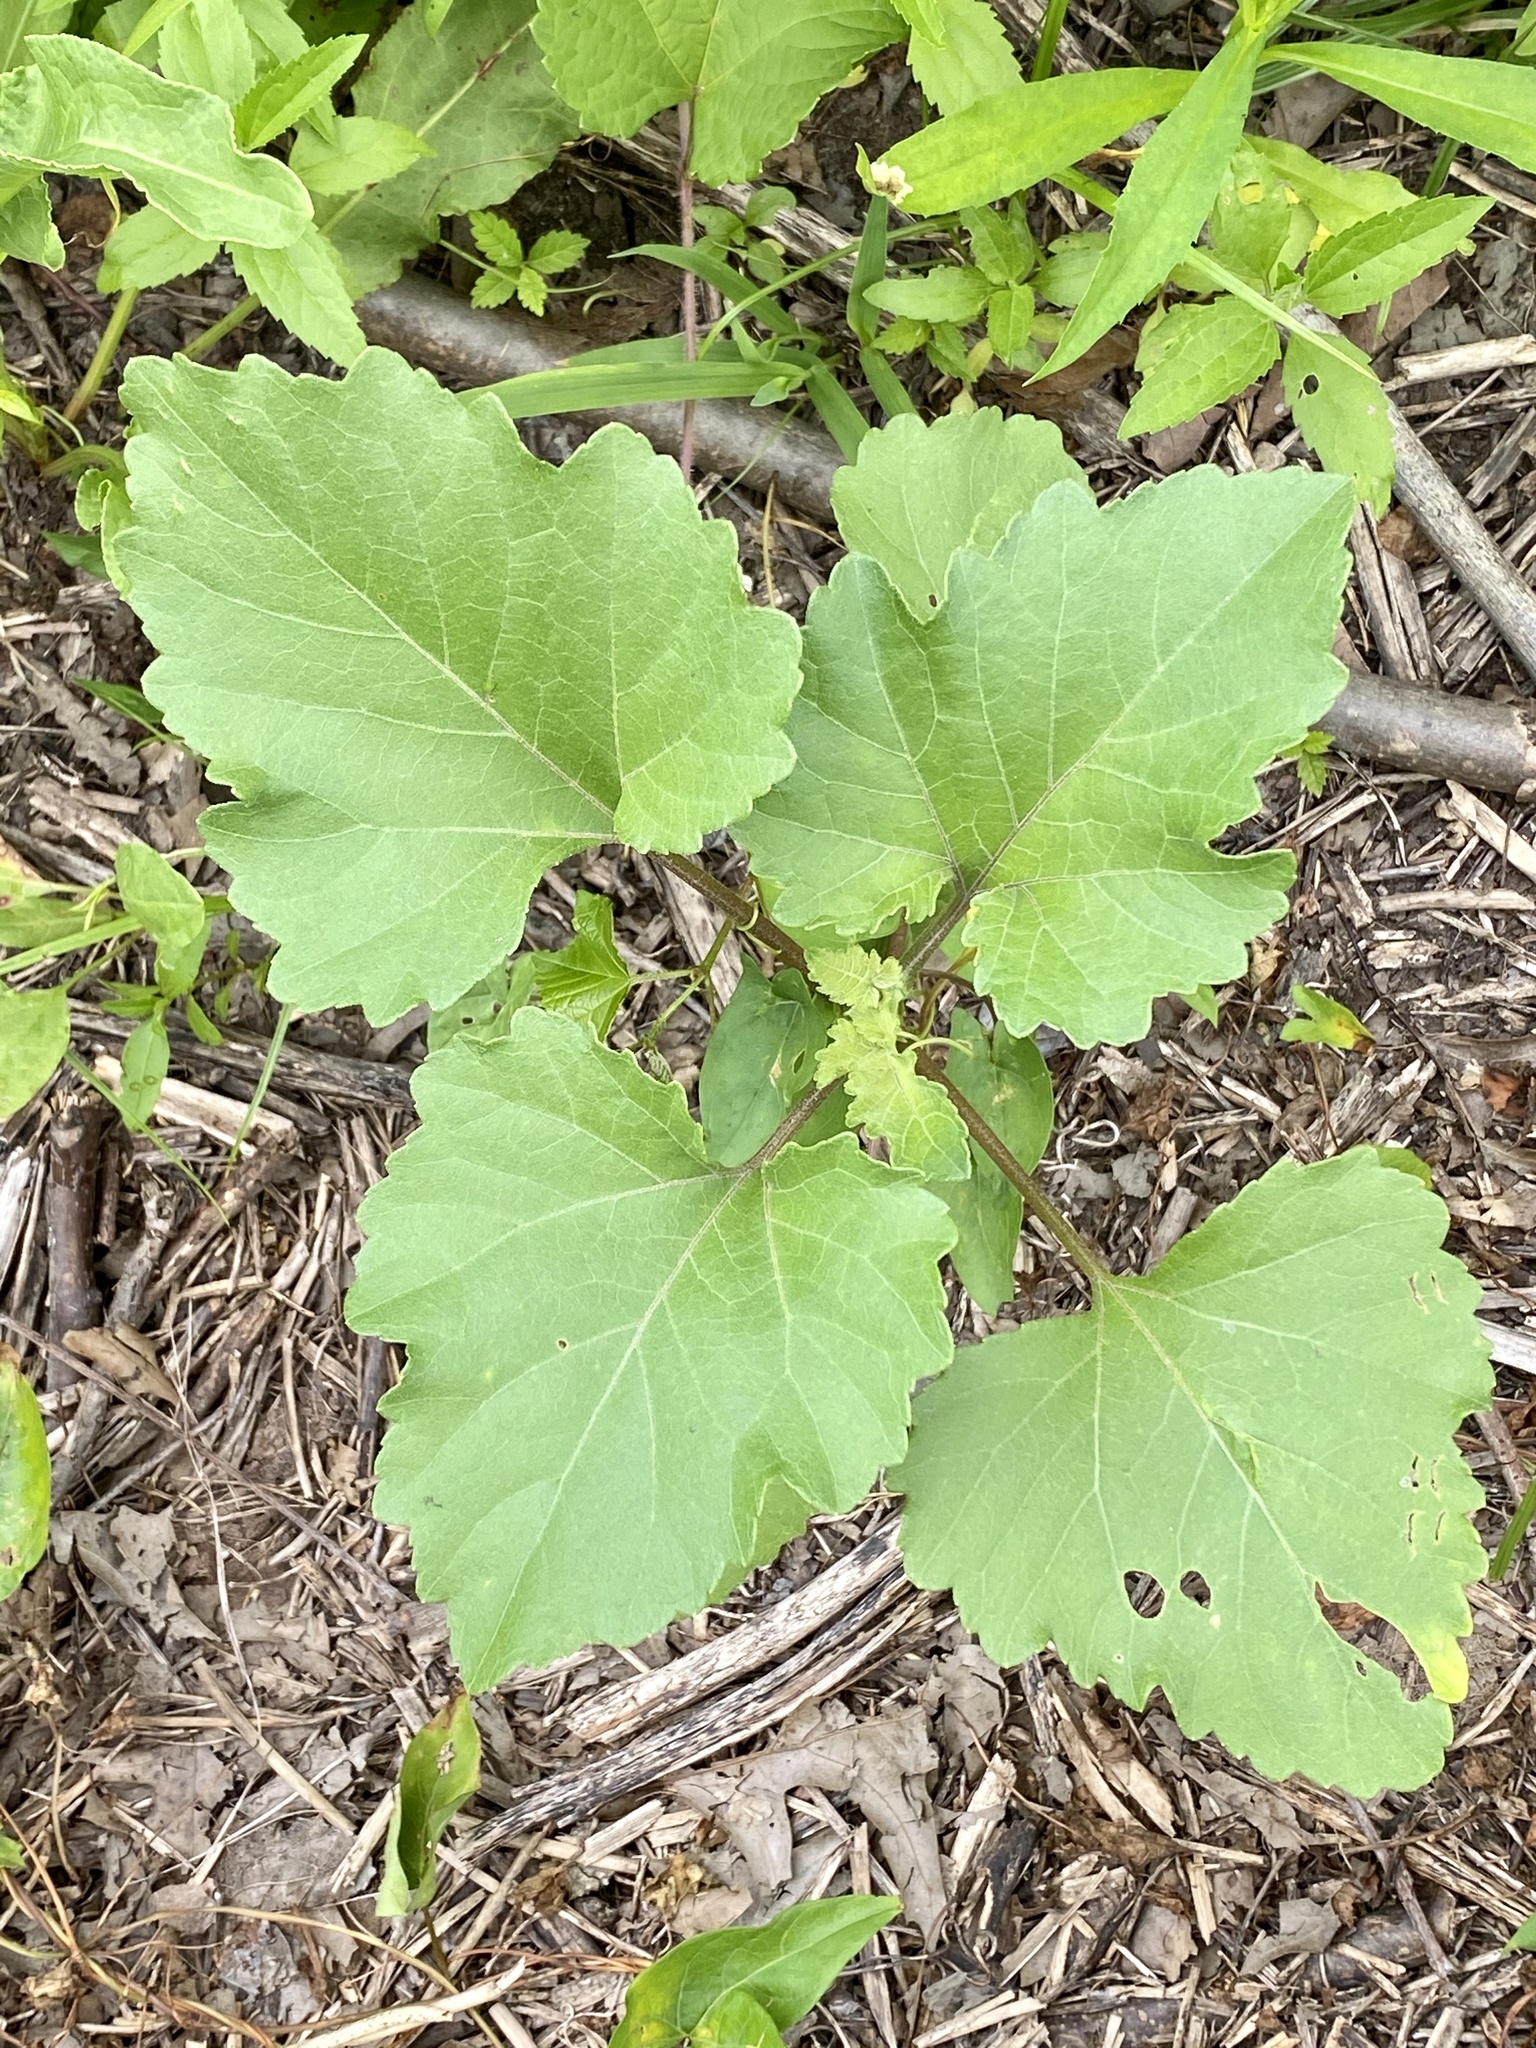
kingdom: Plantae
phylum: Tracheophyta
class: Magnoliopsida
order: Asterales
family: Asteraceae
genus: Xanthium
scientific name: Xanthium strumarium
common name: Rough cocklebur
